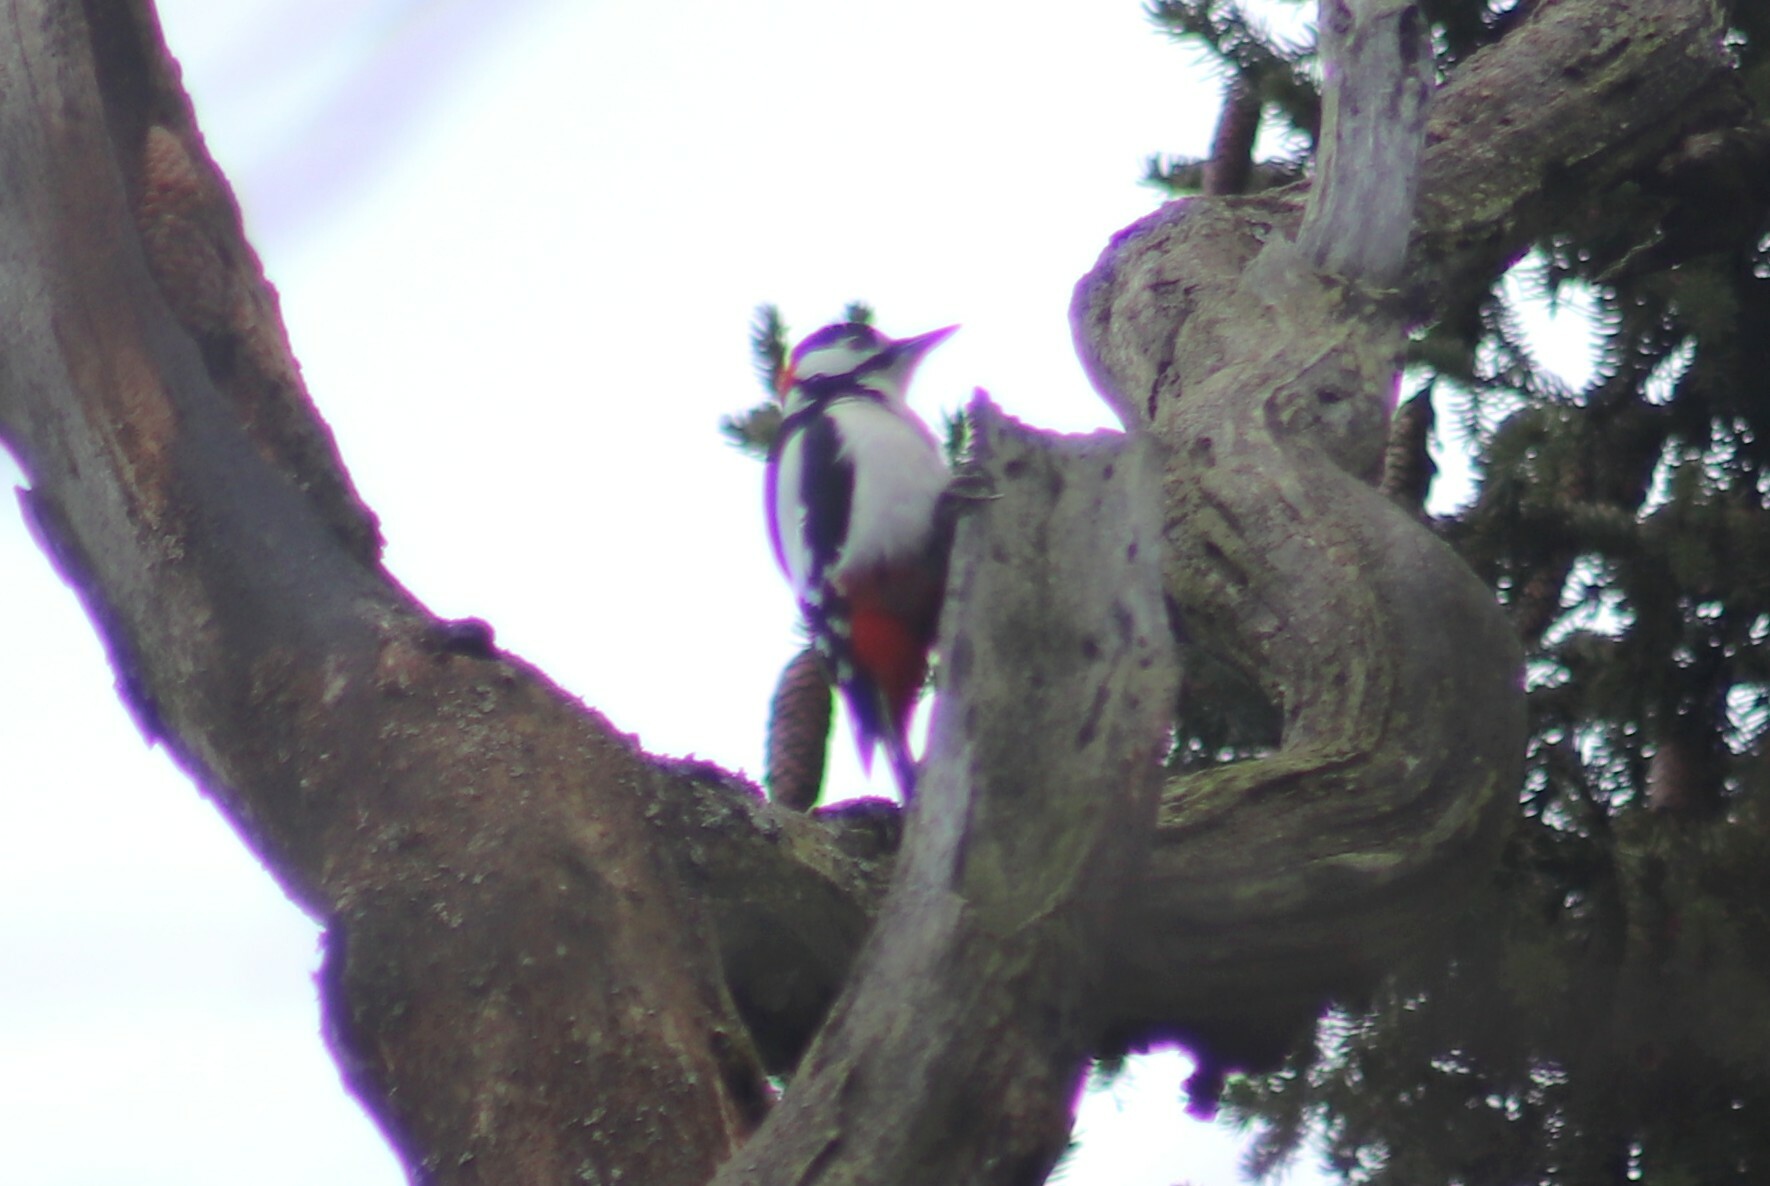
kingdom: Animalia
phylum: Chordata
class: Aves
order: Piciformes
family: Picidae
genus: Dendrocopos
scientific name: Dendrocopos major
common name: Great spotted woodpecker
